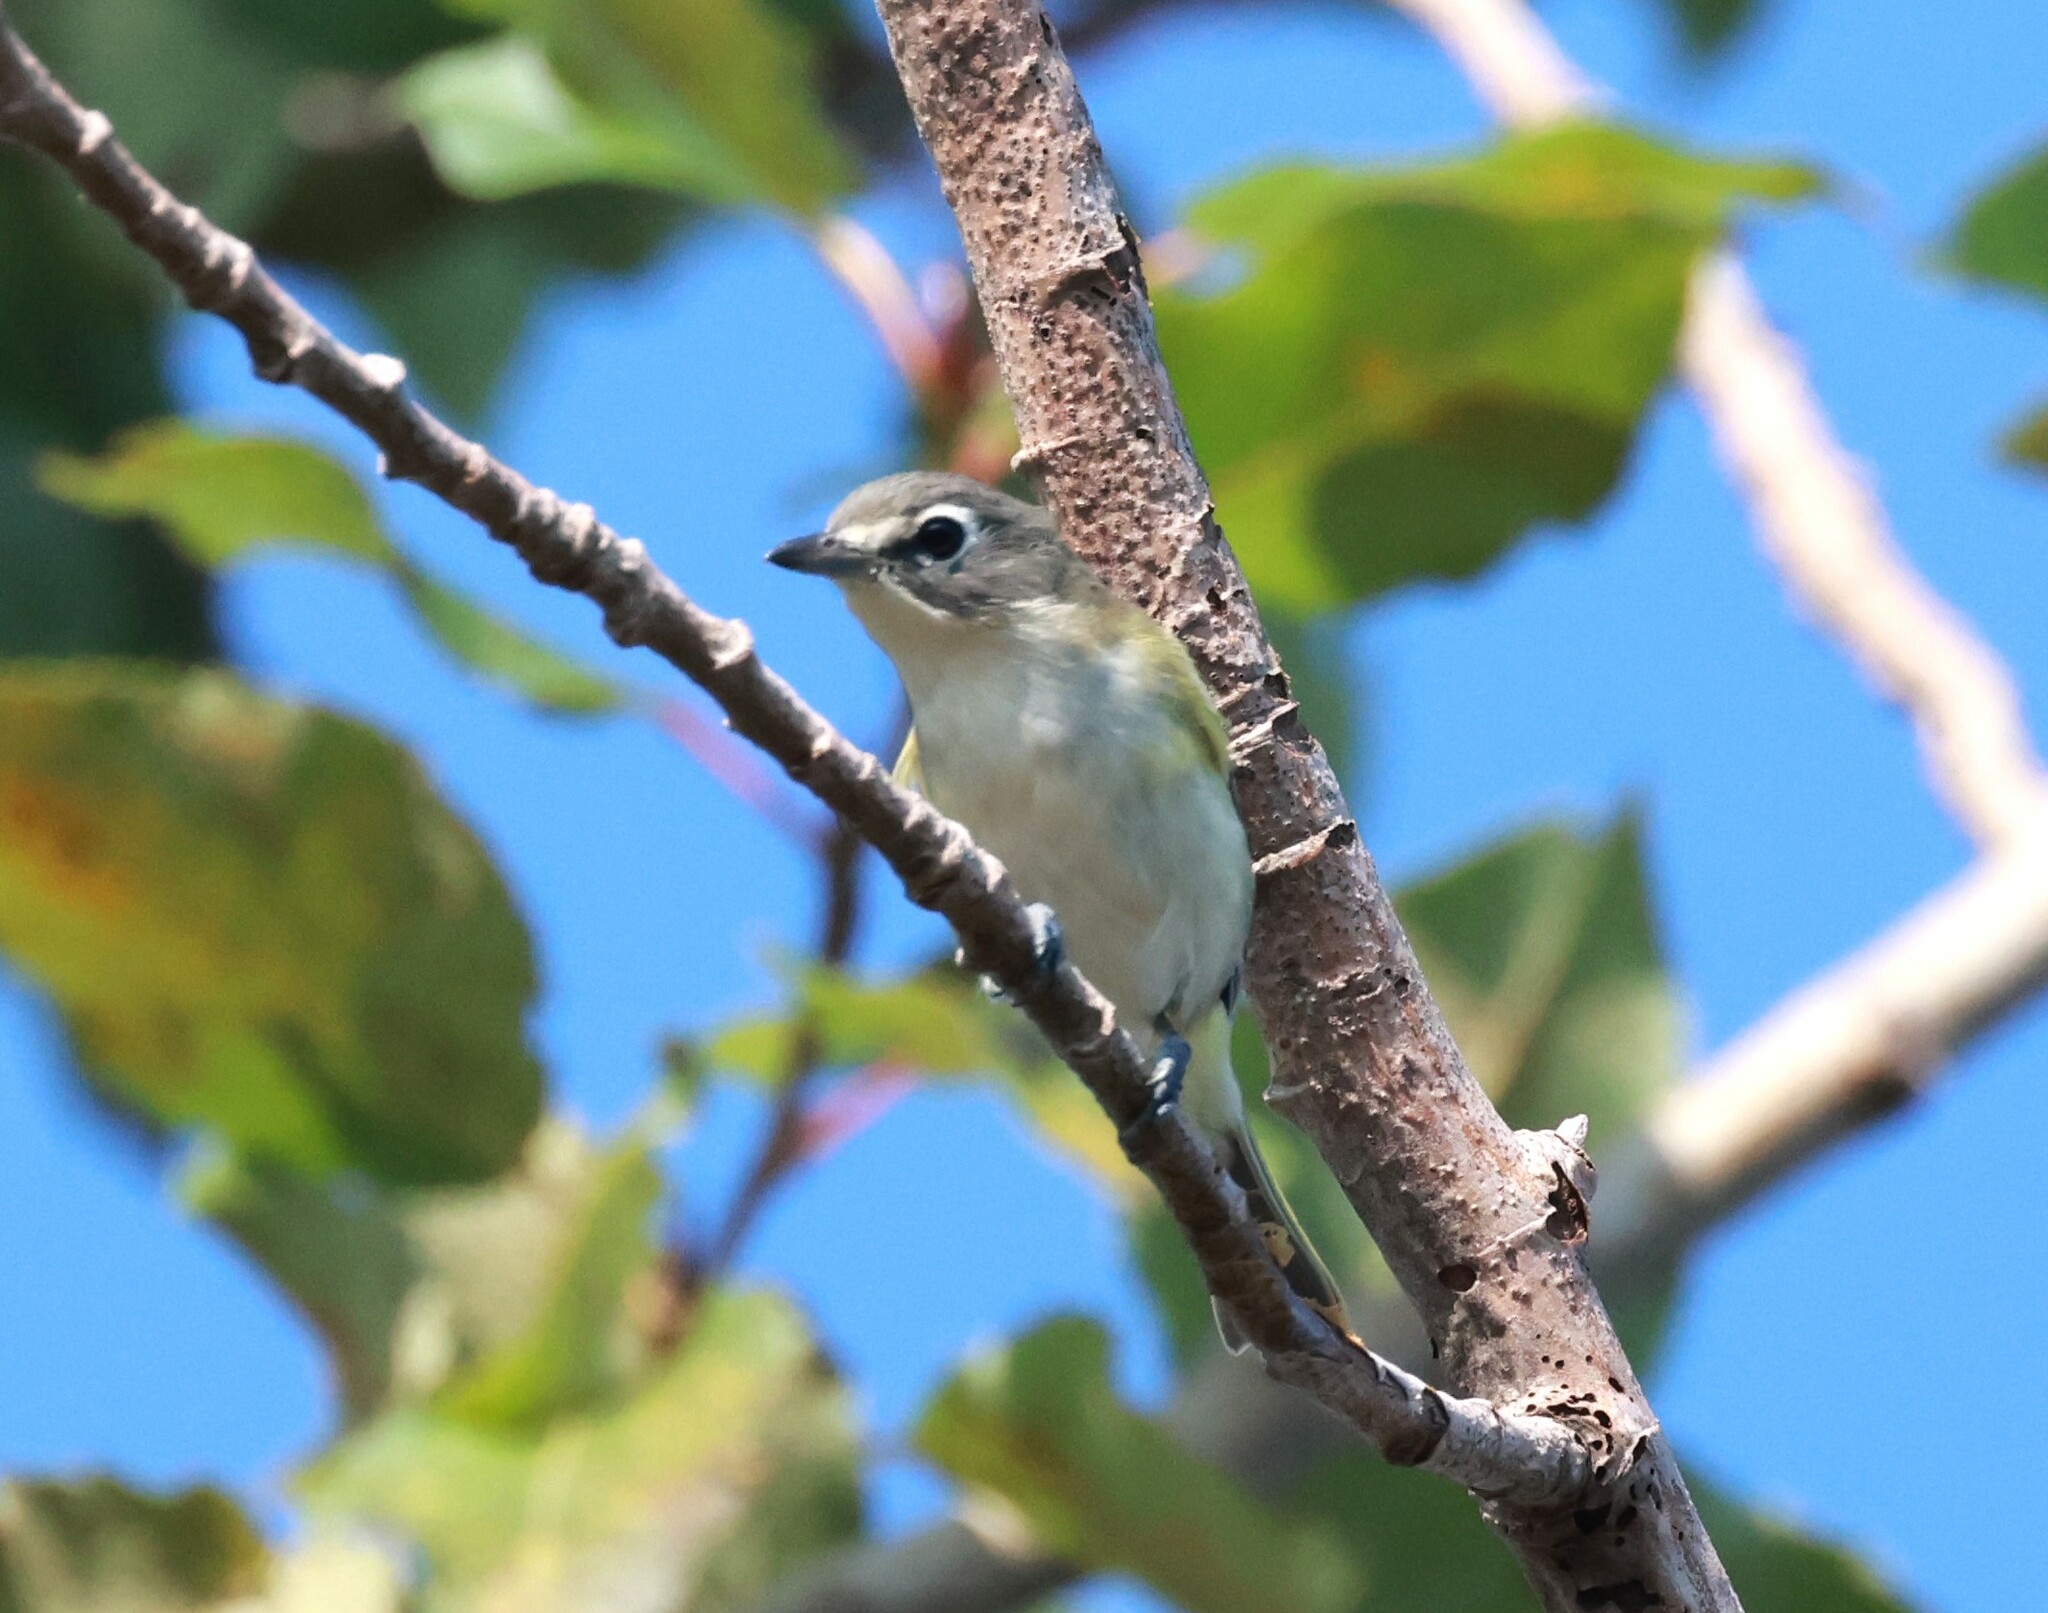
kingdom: Animalia
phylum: Chordata
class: Aves
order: Passeriformes
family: Vireonidae
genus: Vireo
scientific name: Vireo solitarius
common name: Blue-headed vireo
